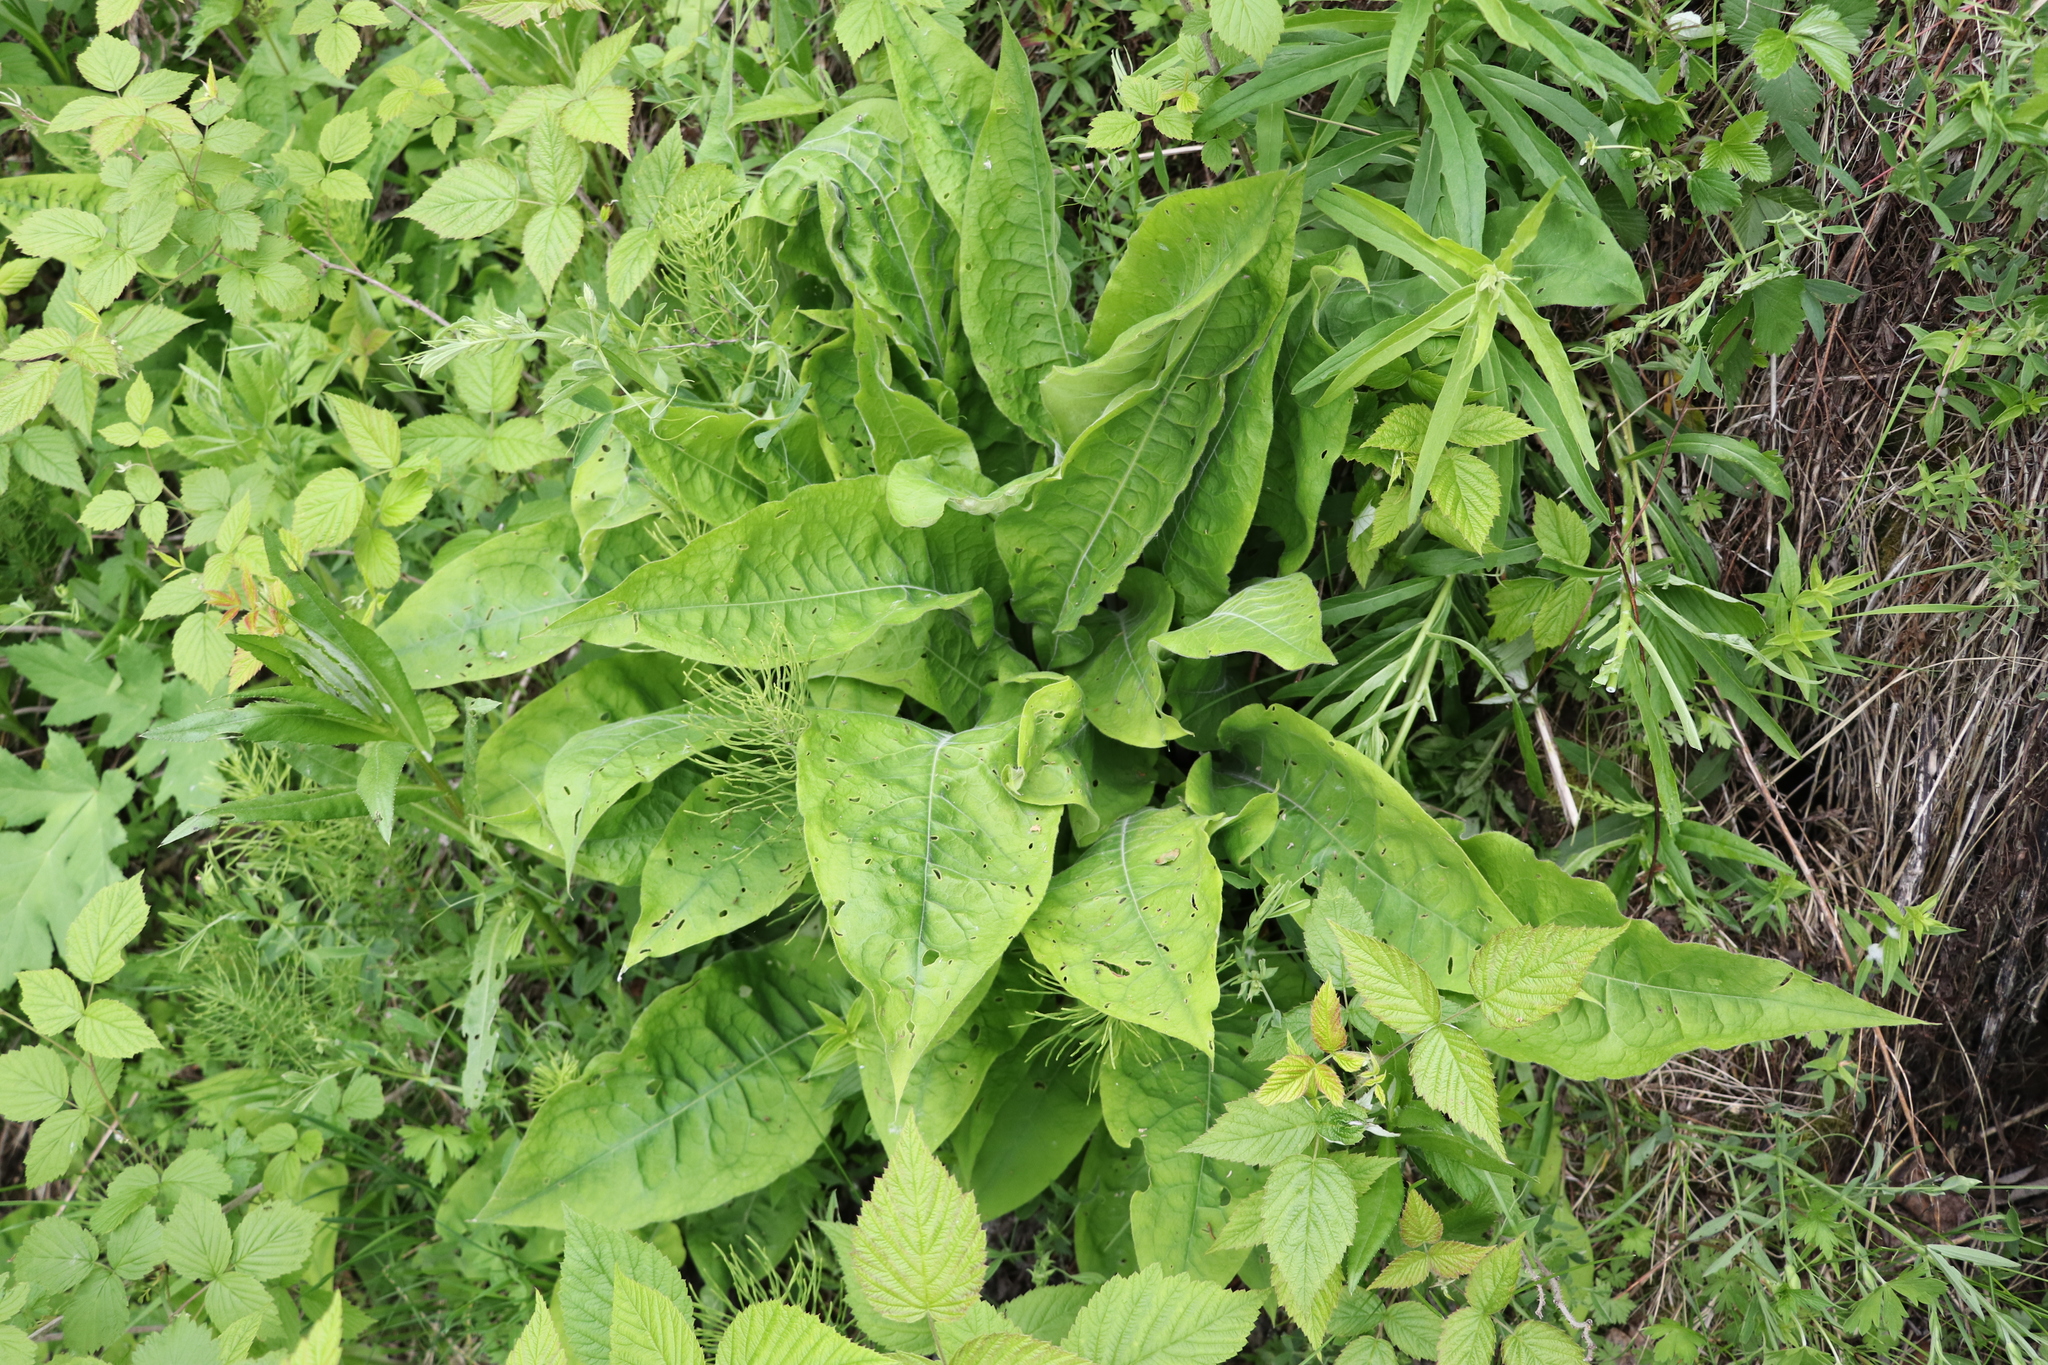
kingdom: Plantae
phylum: Tracheophyta
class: Magnoliopsida
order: Boraginales
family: Boraginaceae
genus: Pulmonaria
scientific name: Pulmonaria mollis
